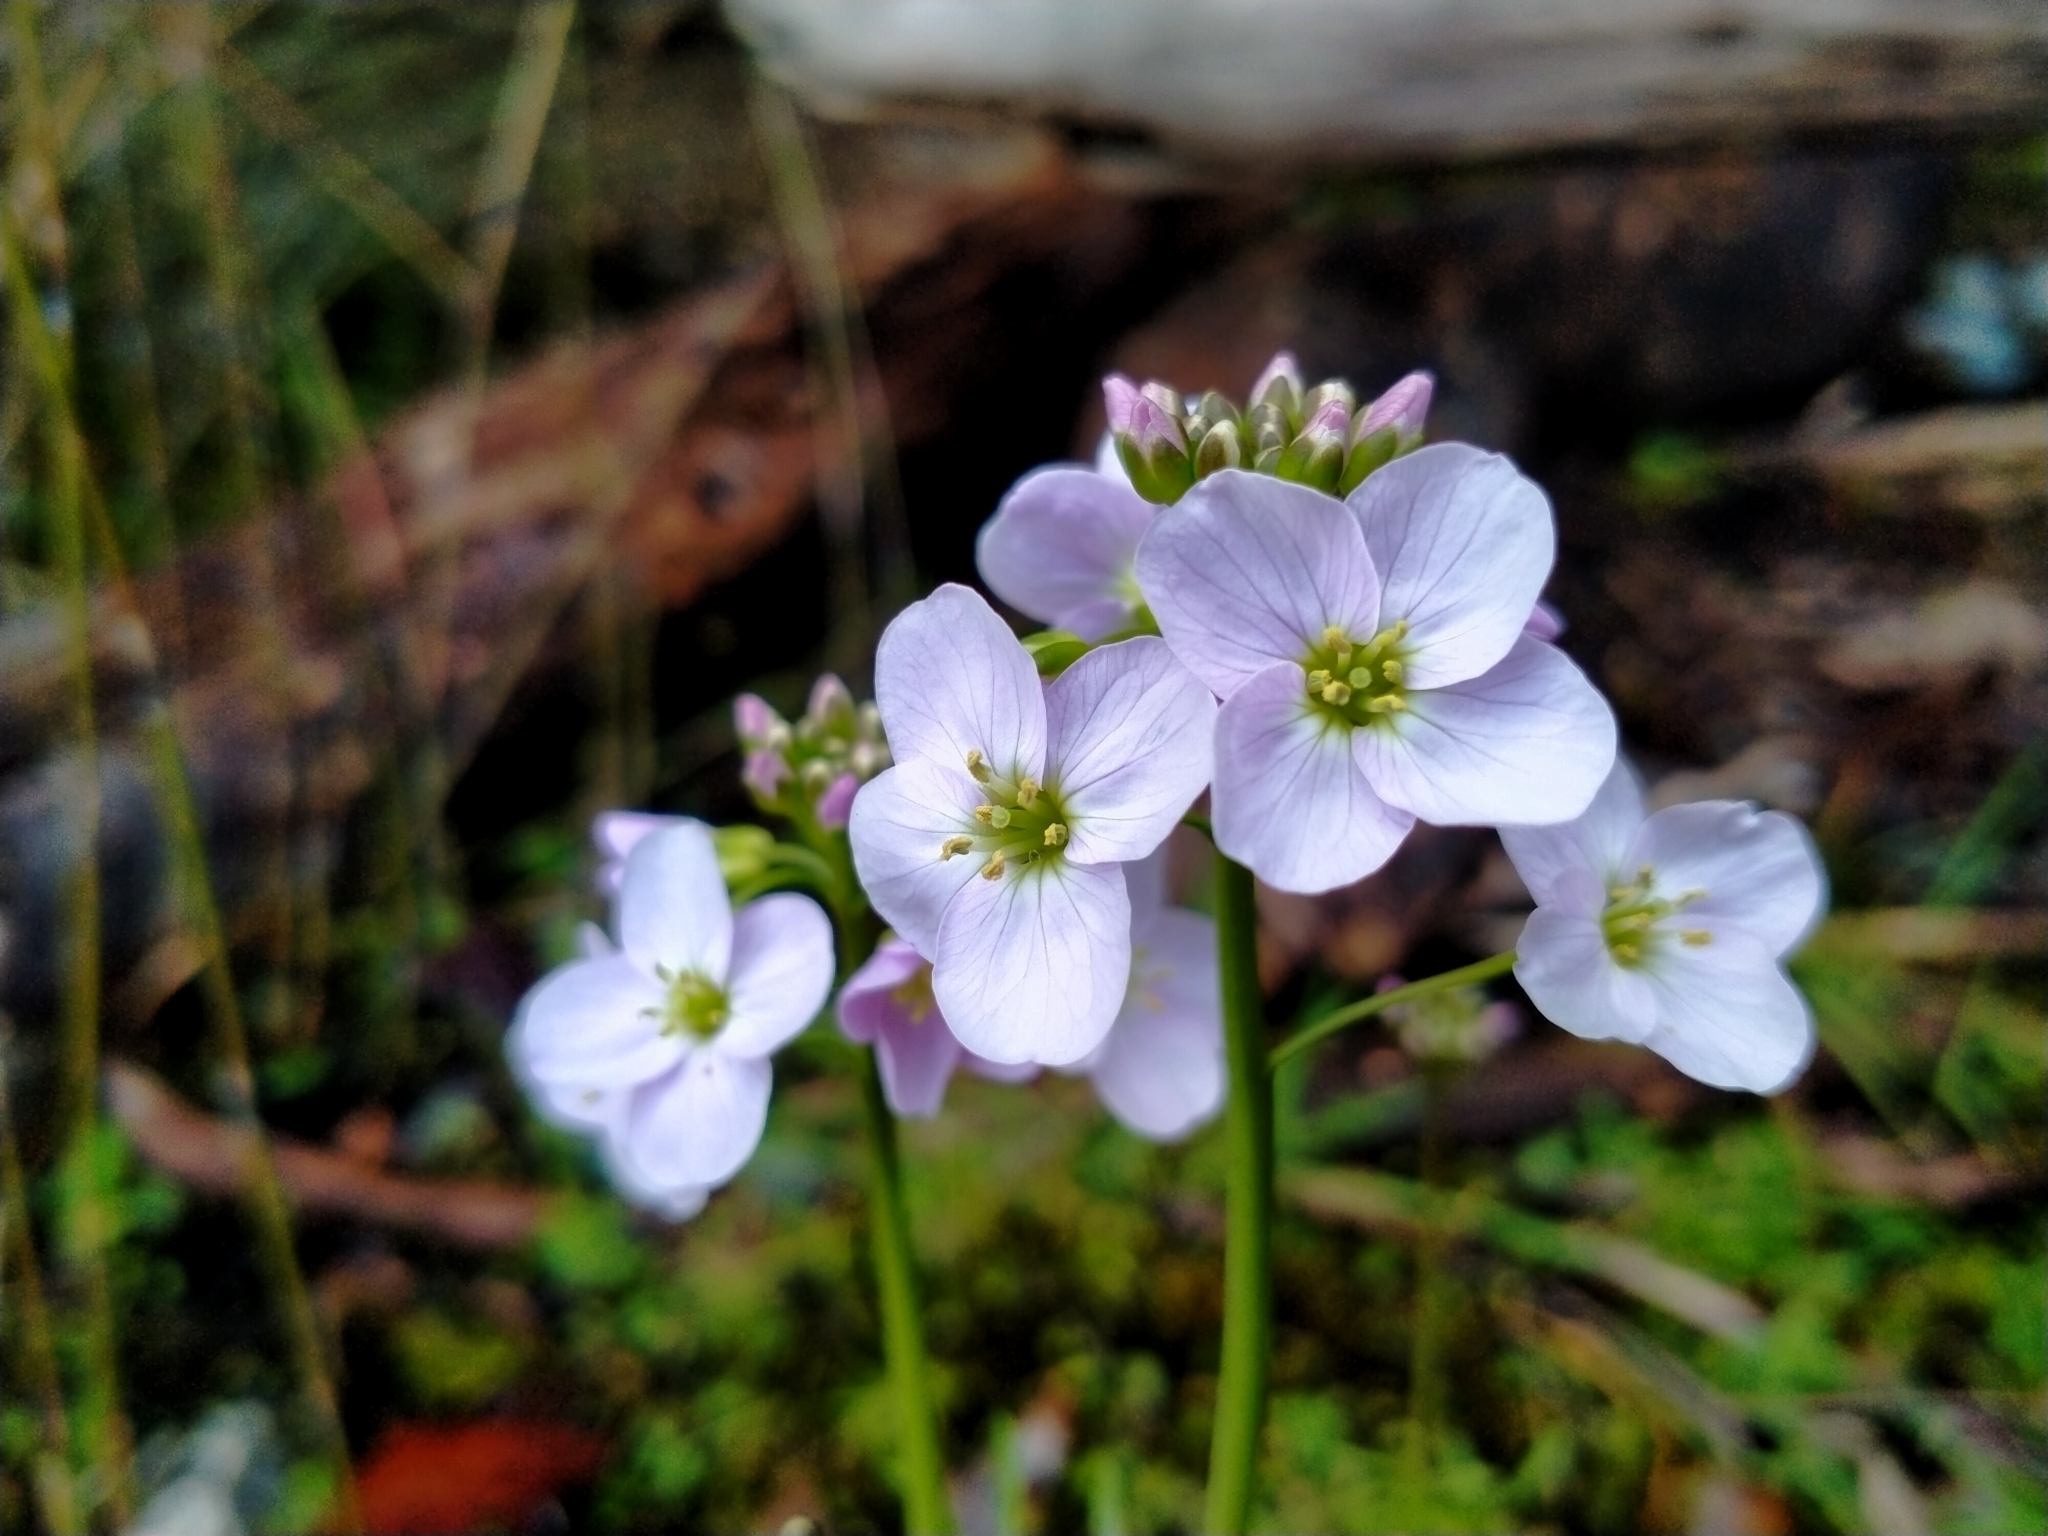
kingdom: Plantae
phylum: Tracheophyta
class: Magnoliopsida
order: Brassicales
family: Brassicaceae
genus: Cardamine
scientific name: Cardamine pratensis
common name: Cuckoo flower
